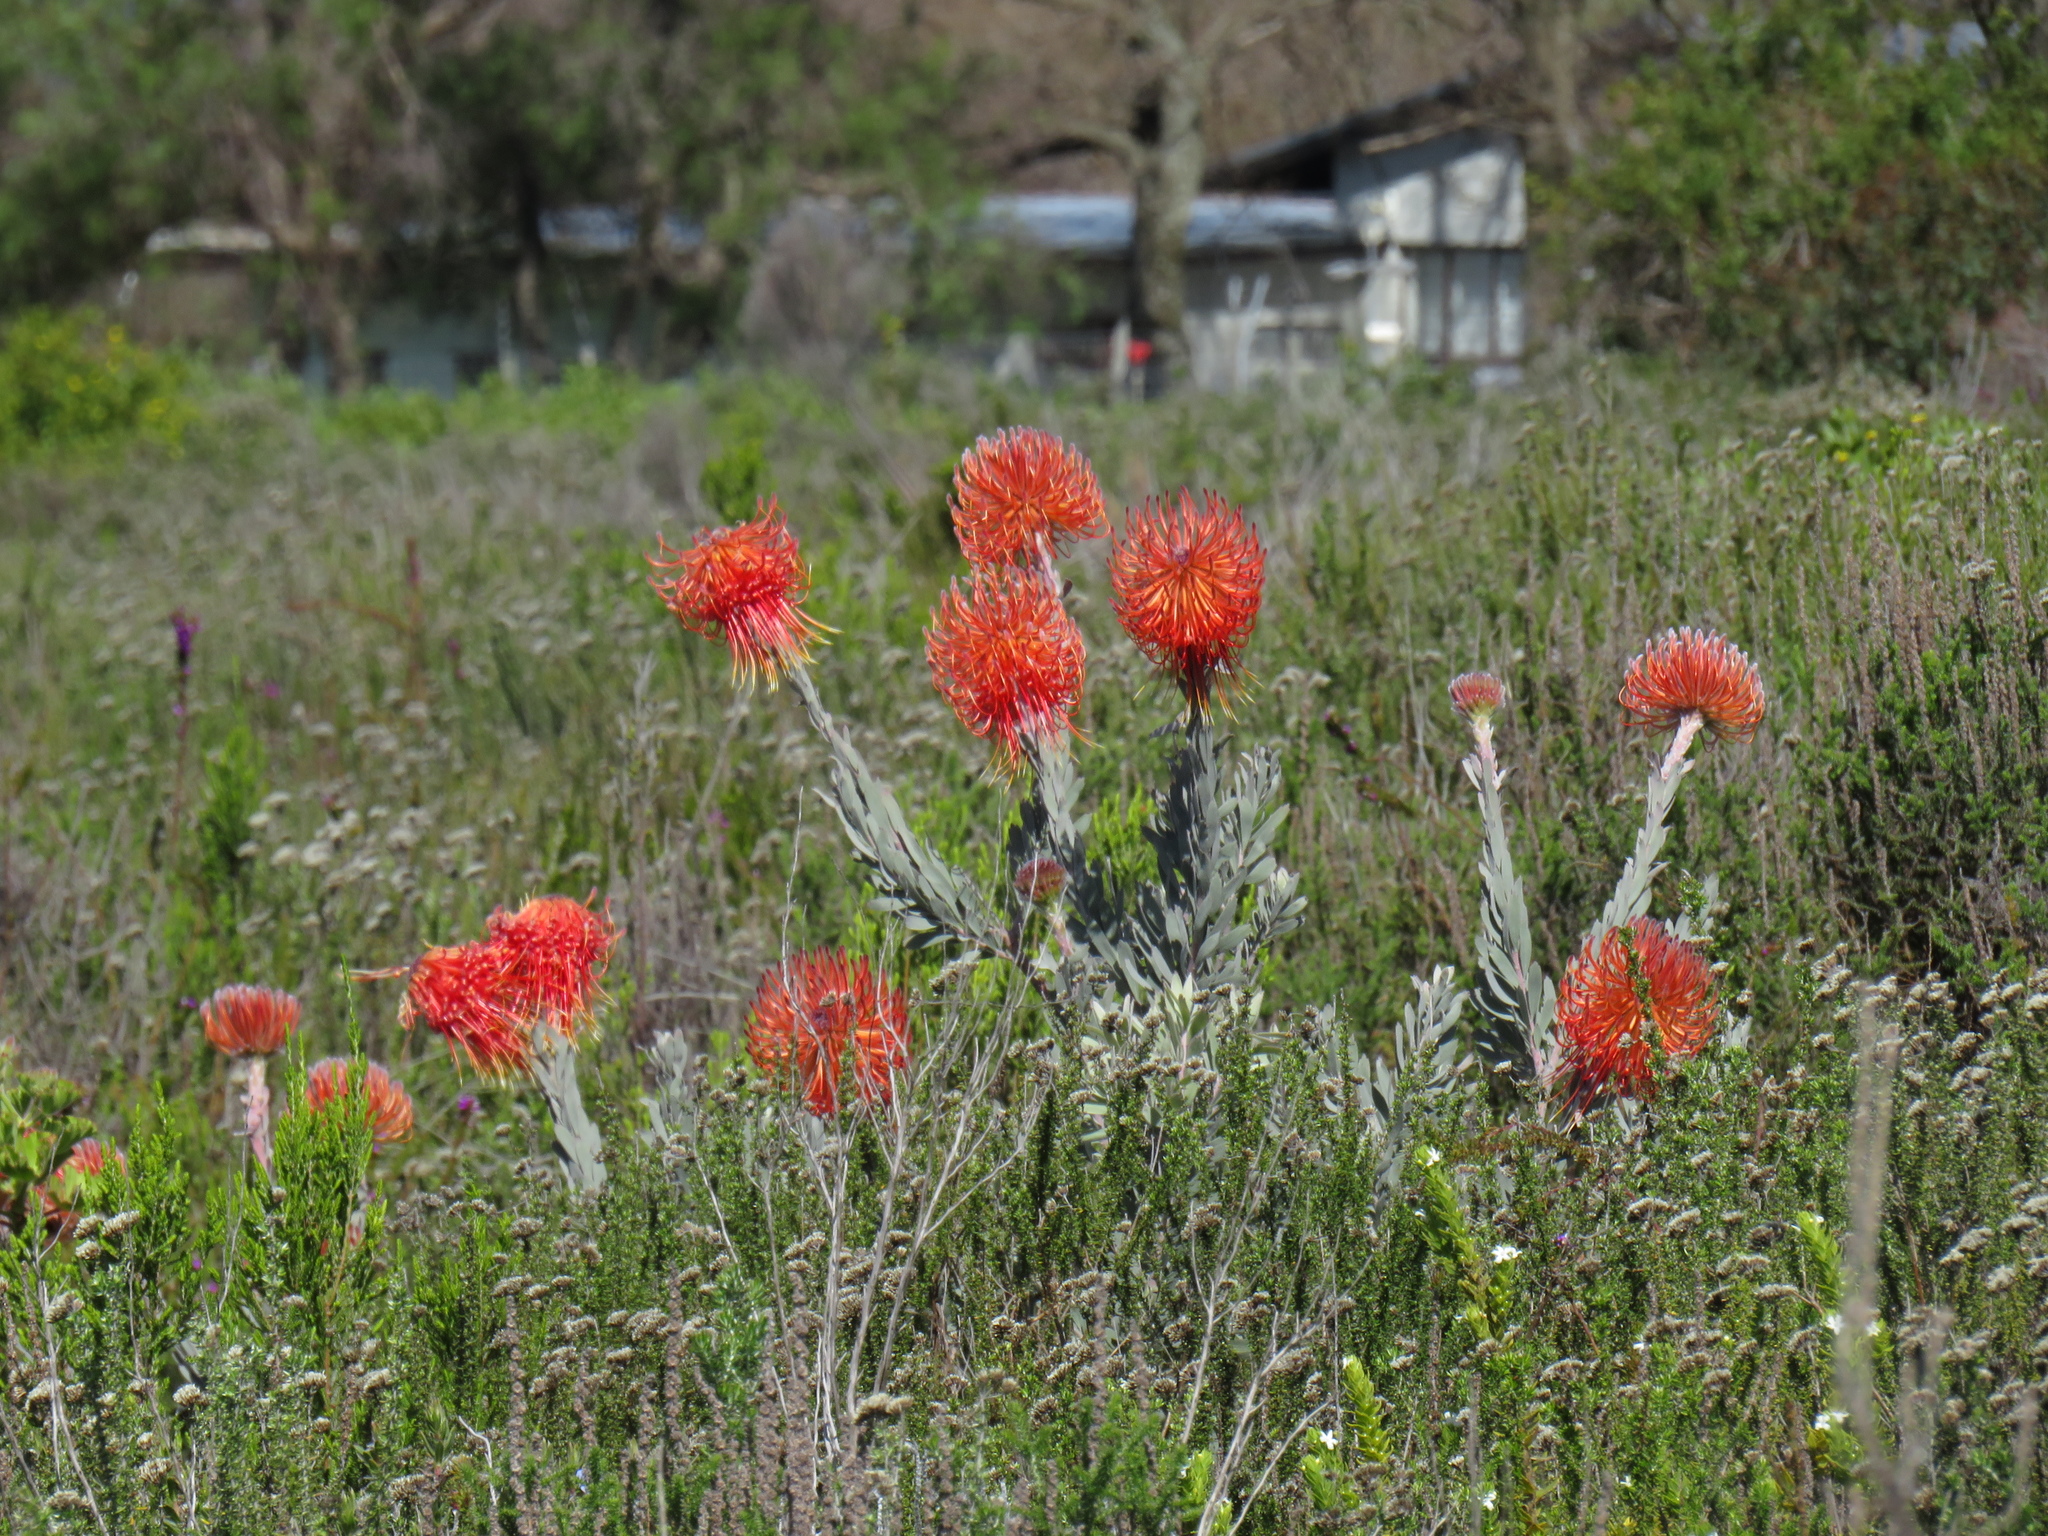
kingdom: Plantae
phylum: Tracheophyta
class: Magnoliopsida
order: Proteales
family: Proteaceae
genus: Leucospermum
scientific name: Leucospermum reflexum
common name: Rocket pincushion
